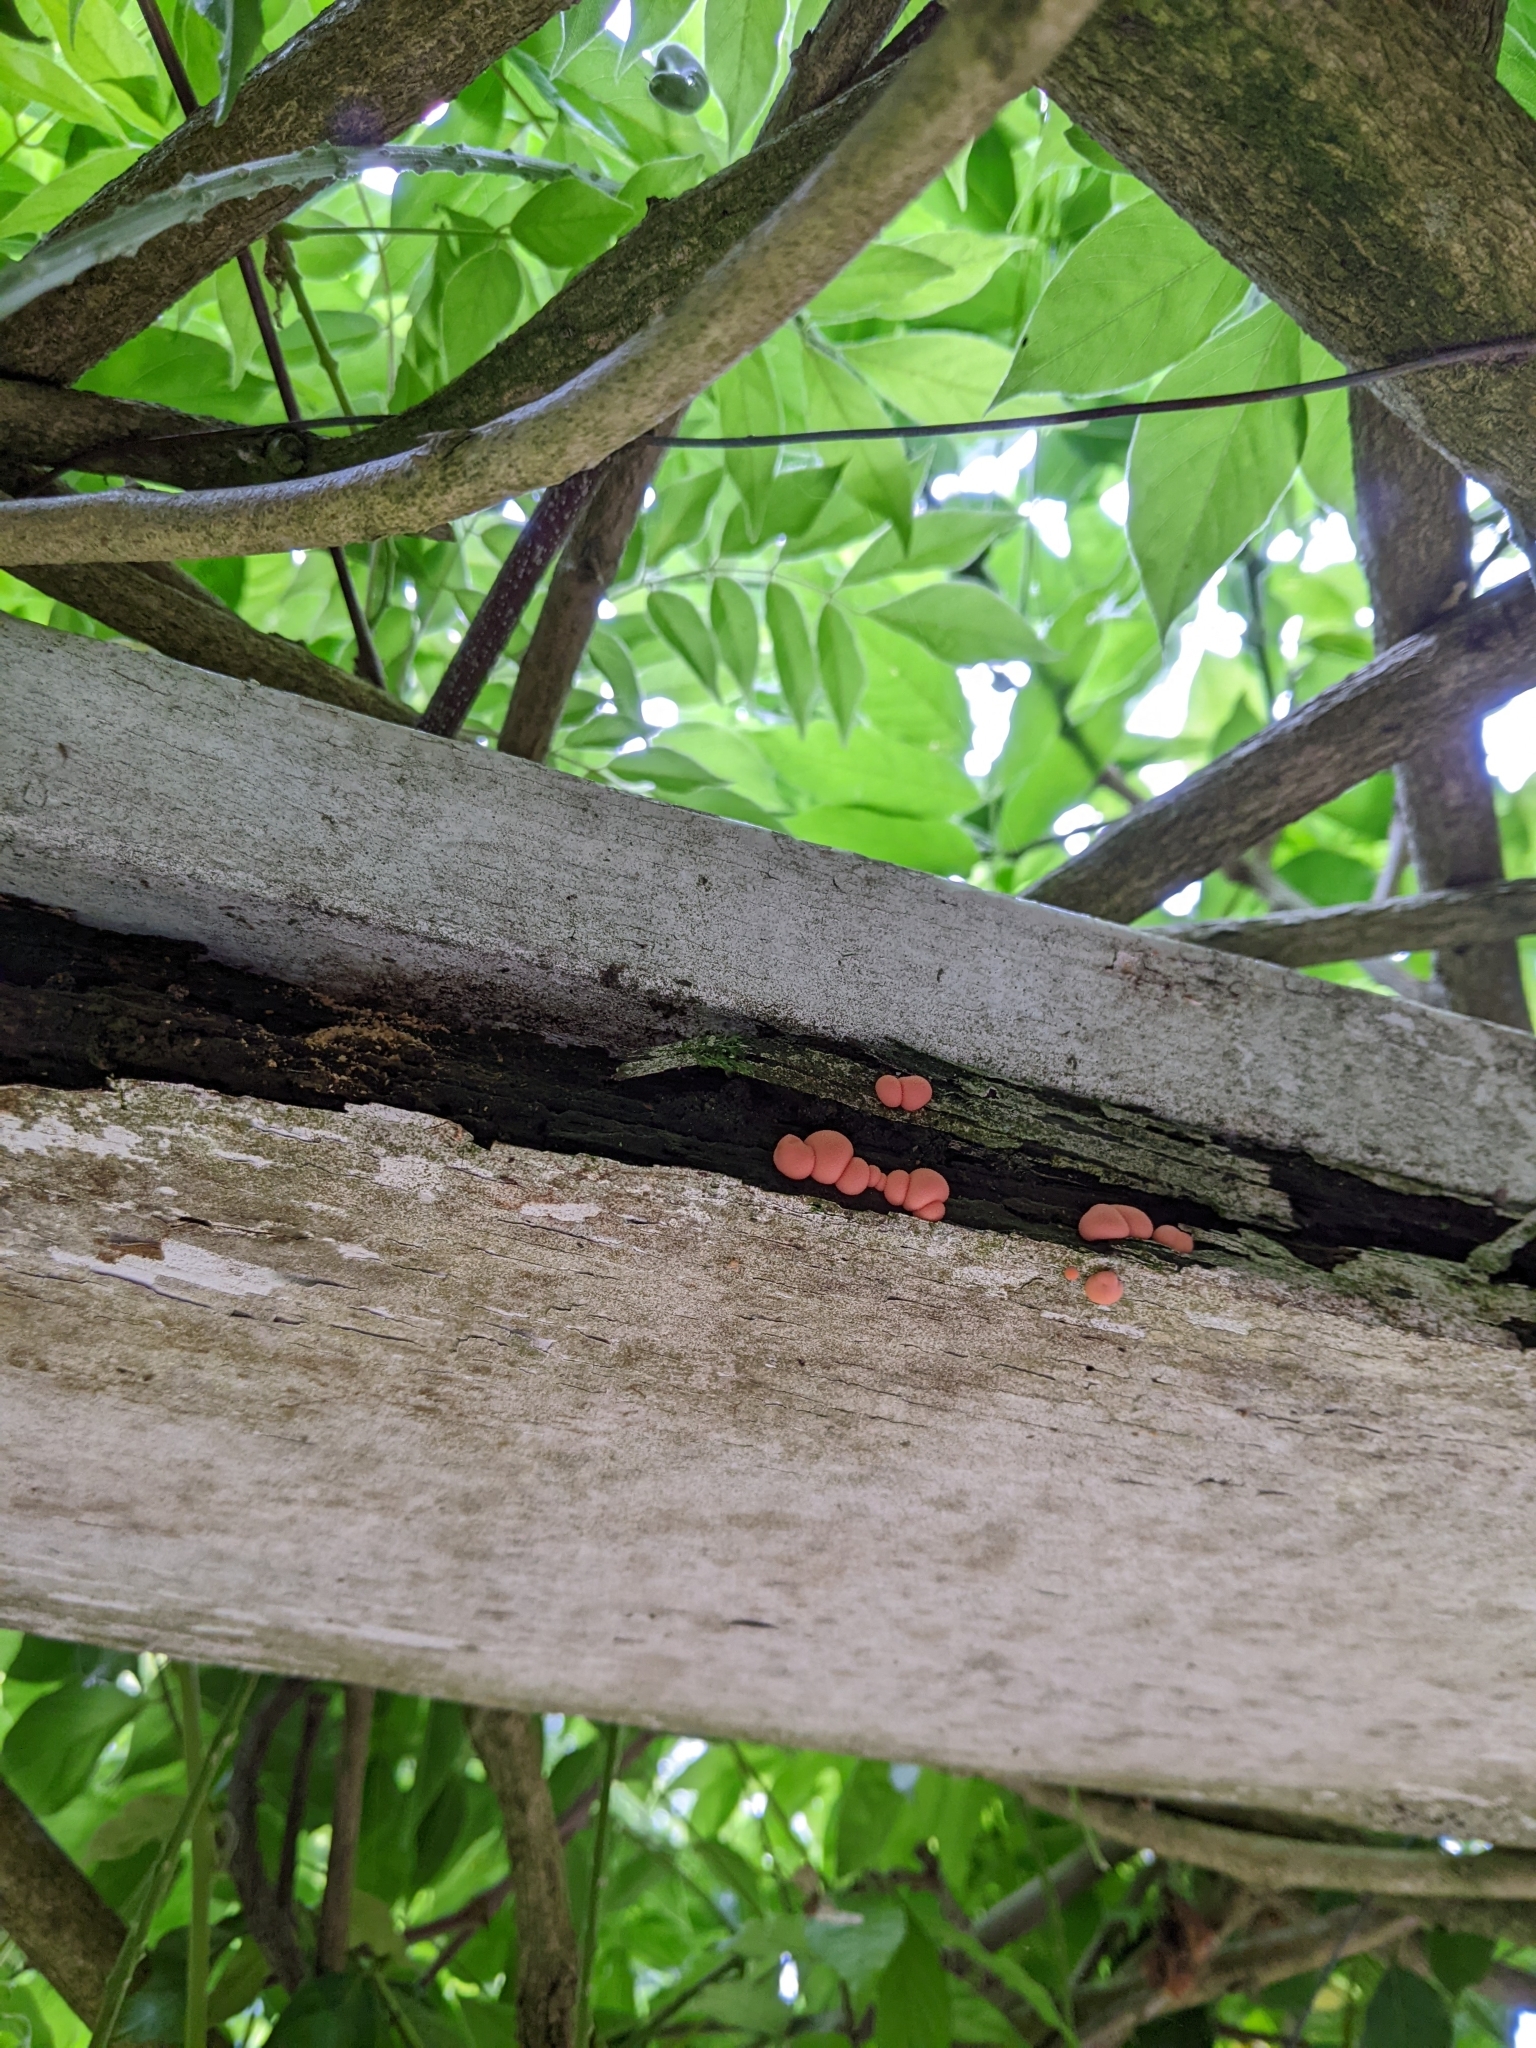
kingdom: Protozoa
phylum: Mycetozoa
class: Myxomycetes
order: Cribrariales
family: Tubiferaceae
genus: Lycogala
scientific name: Lycogala epidendrum
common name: Wolf's milk
